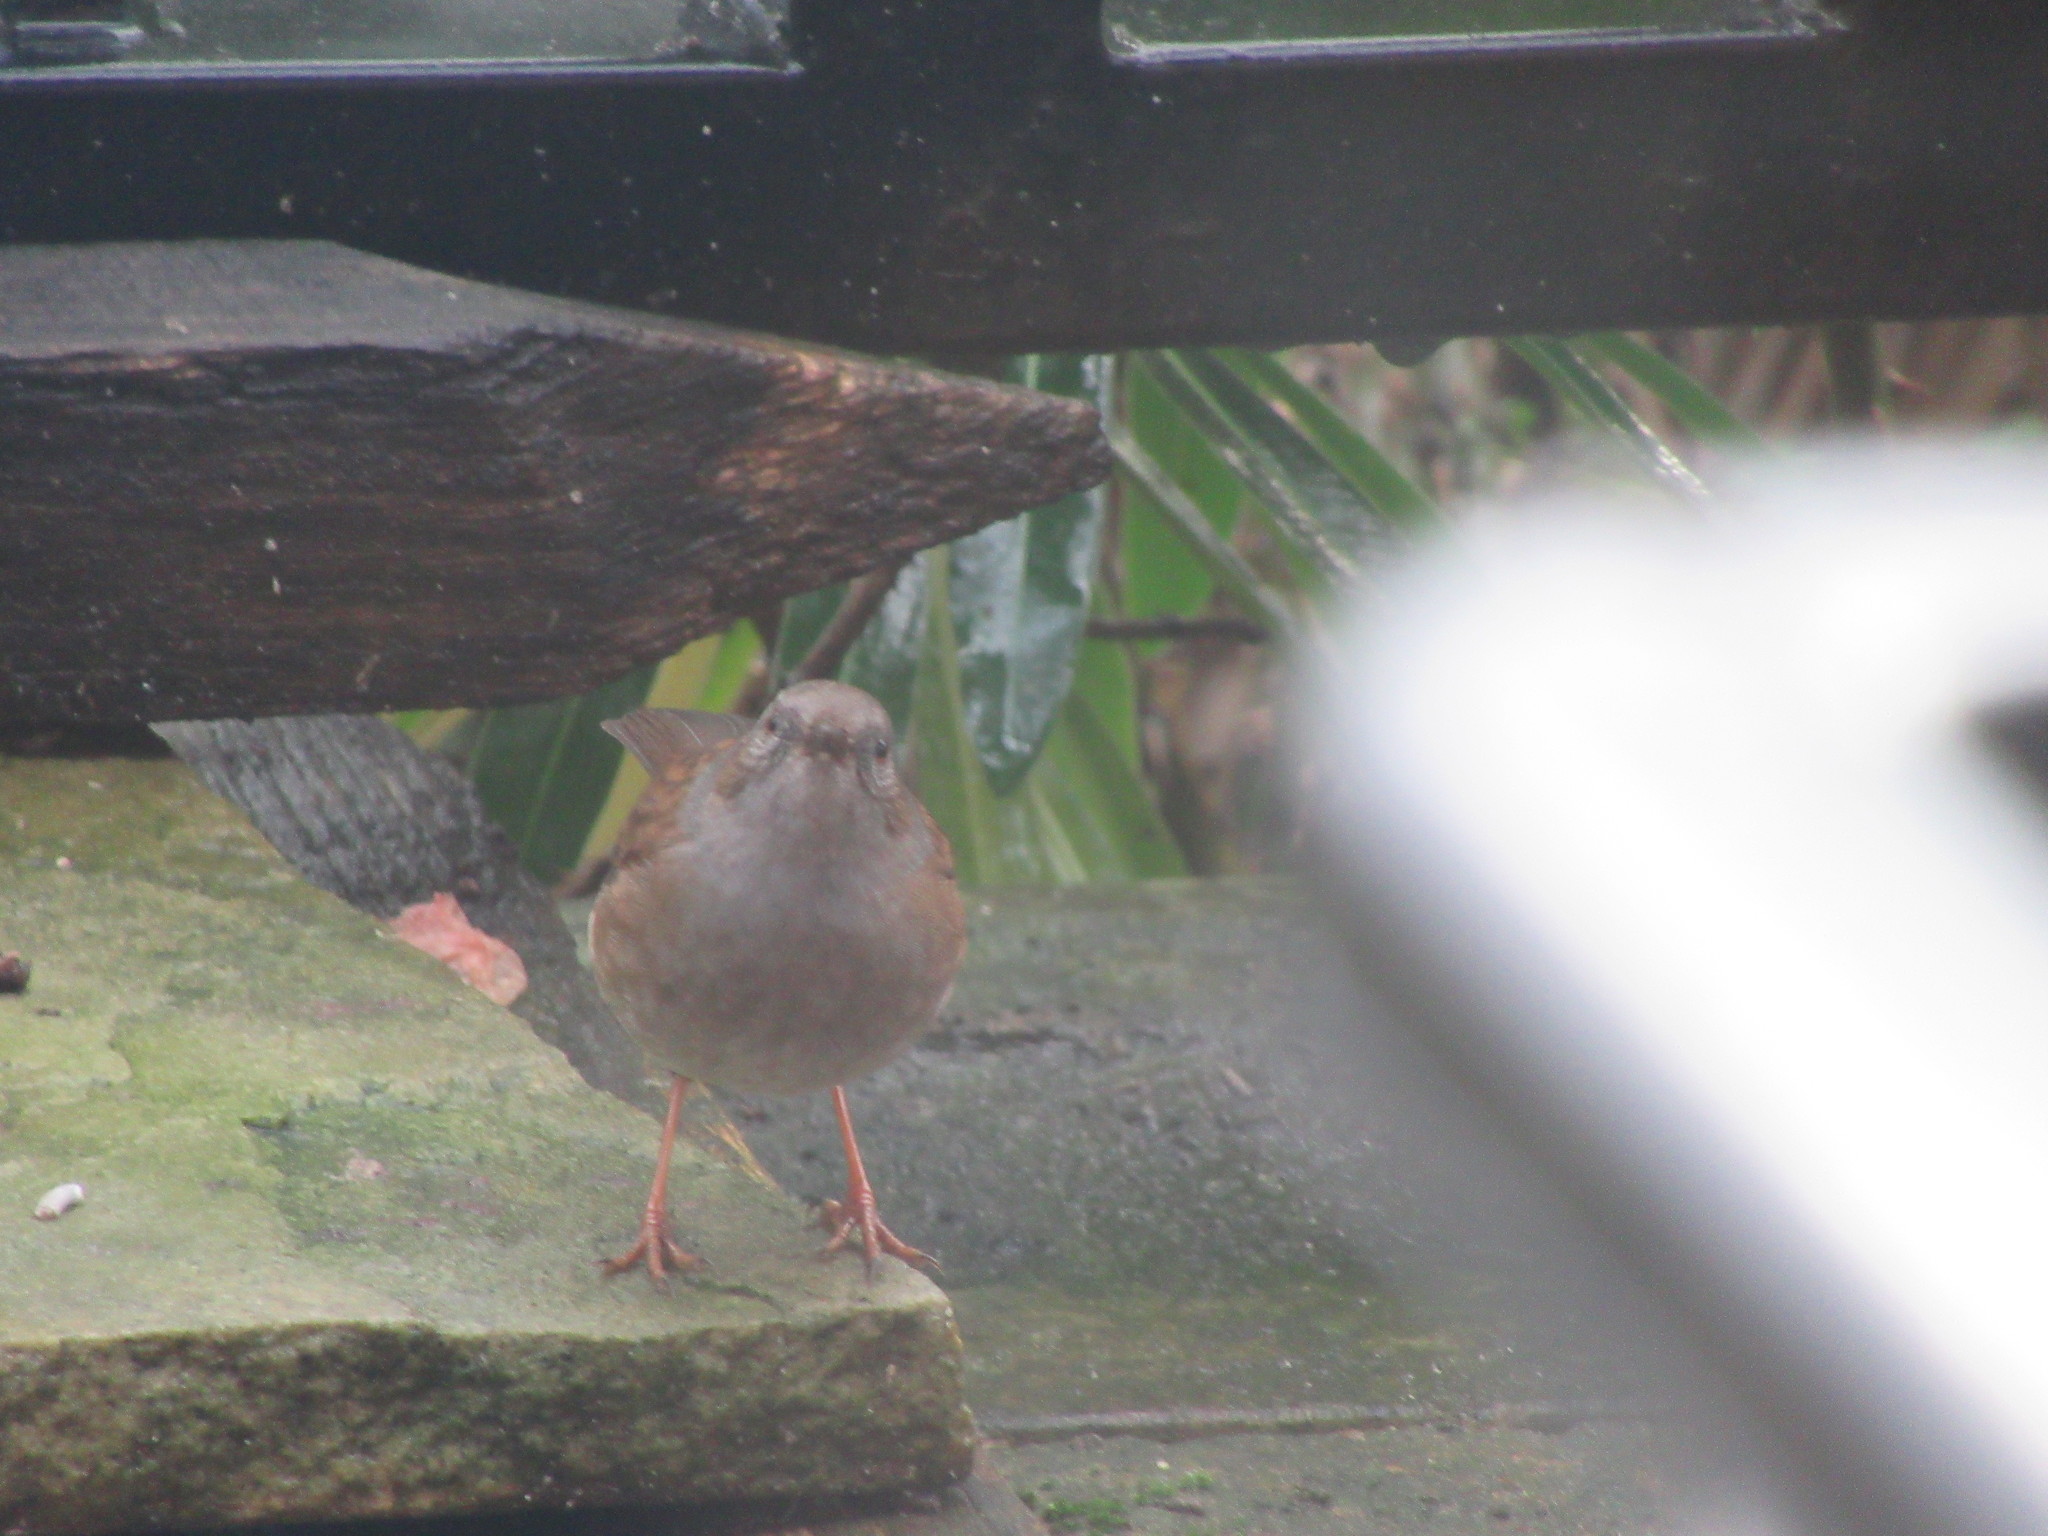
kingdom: Animalia
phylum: Chordata
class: Aves
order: Passeriformes
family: Prunellidae
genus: Prunella
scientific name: Prunella modularis
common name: Dunnock
